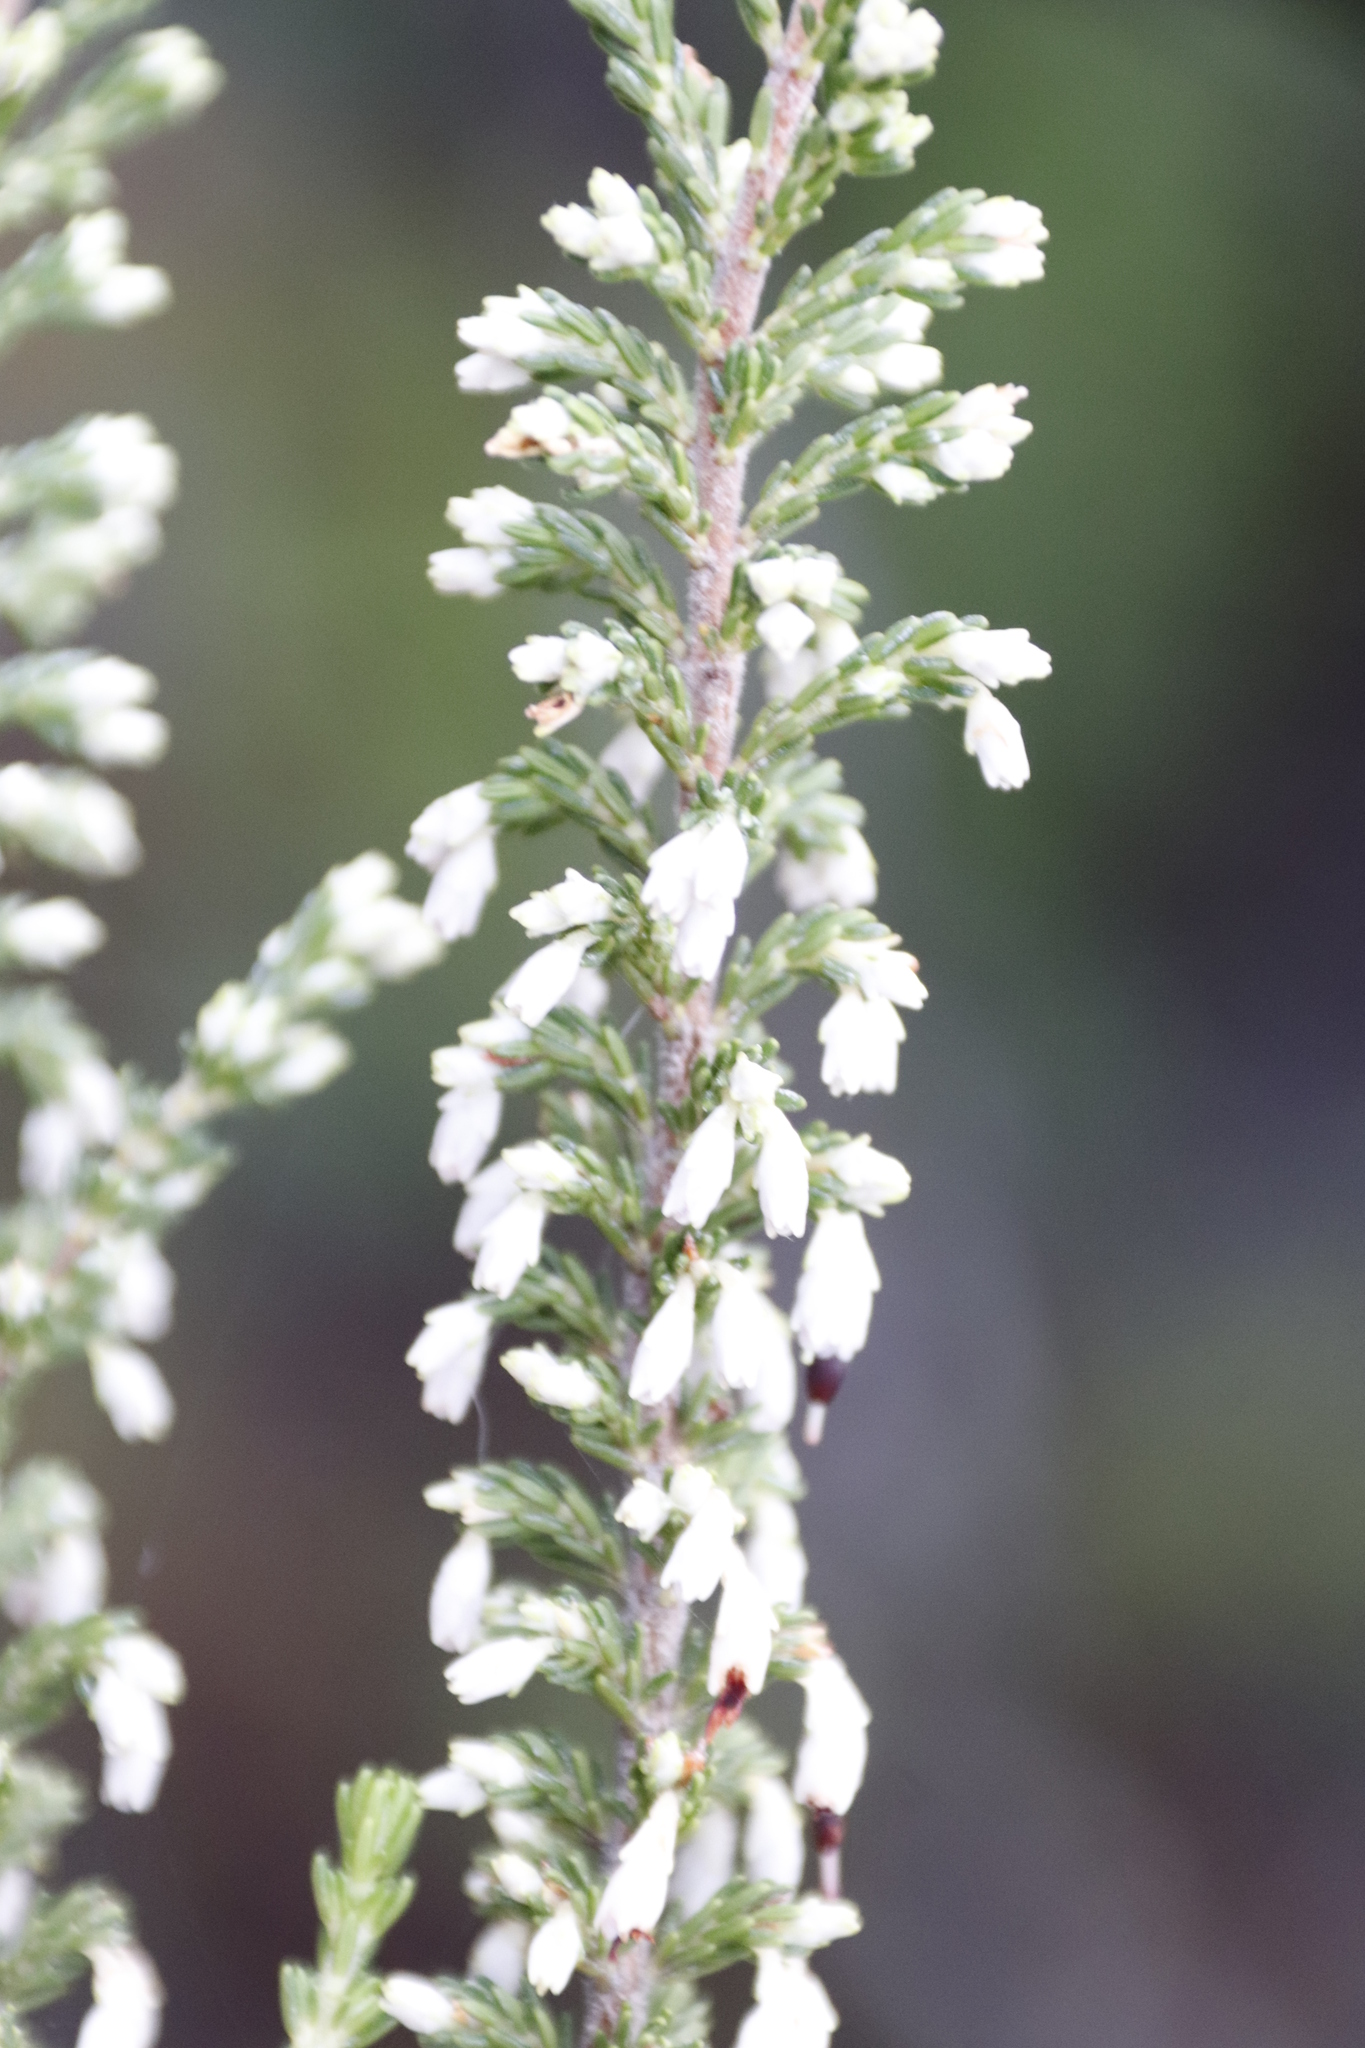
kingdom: Plantae
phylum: Tracheophyta
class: Magnoliopsida
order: Ericales
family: Ericaceae
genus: Erica
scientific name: Erica imbricata
